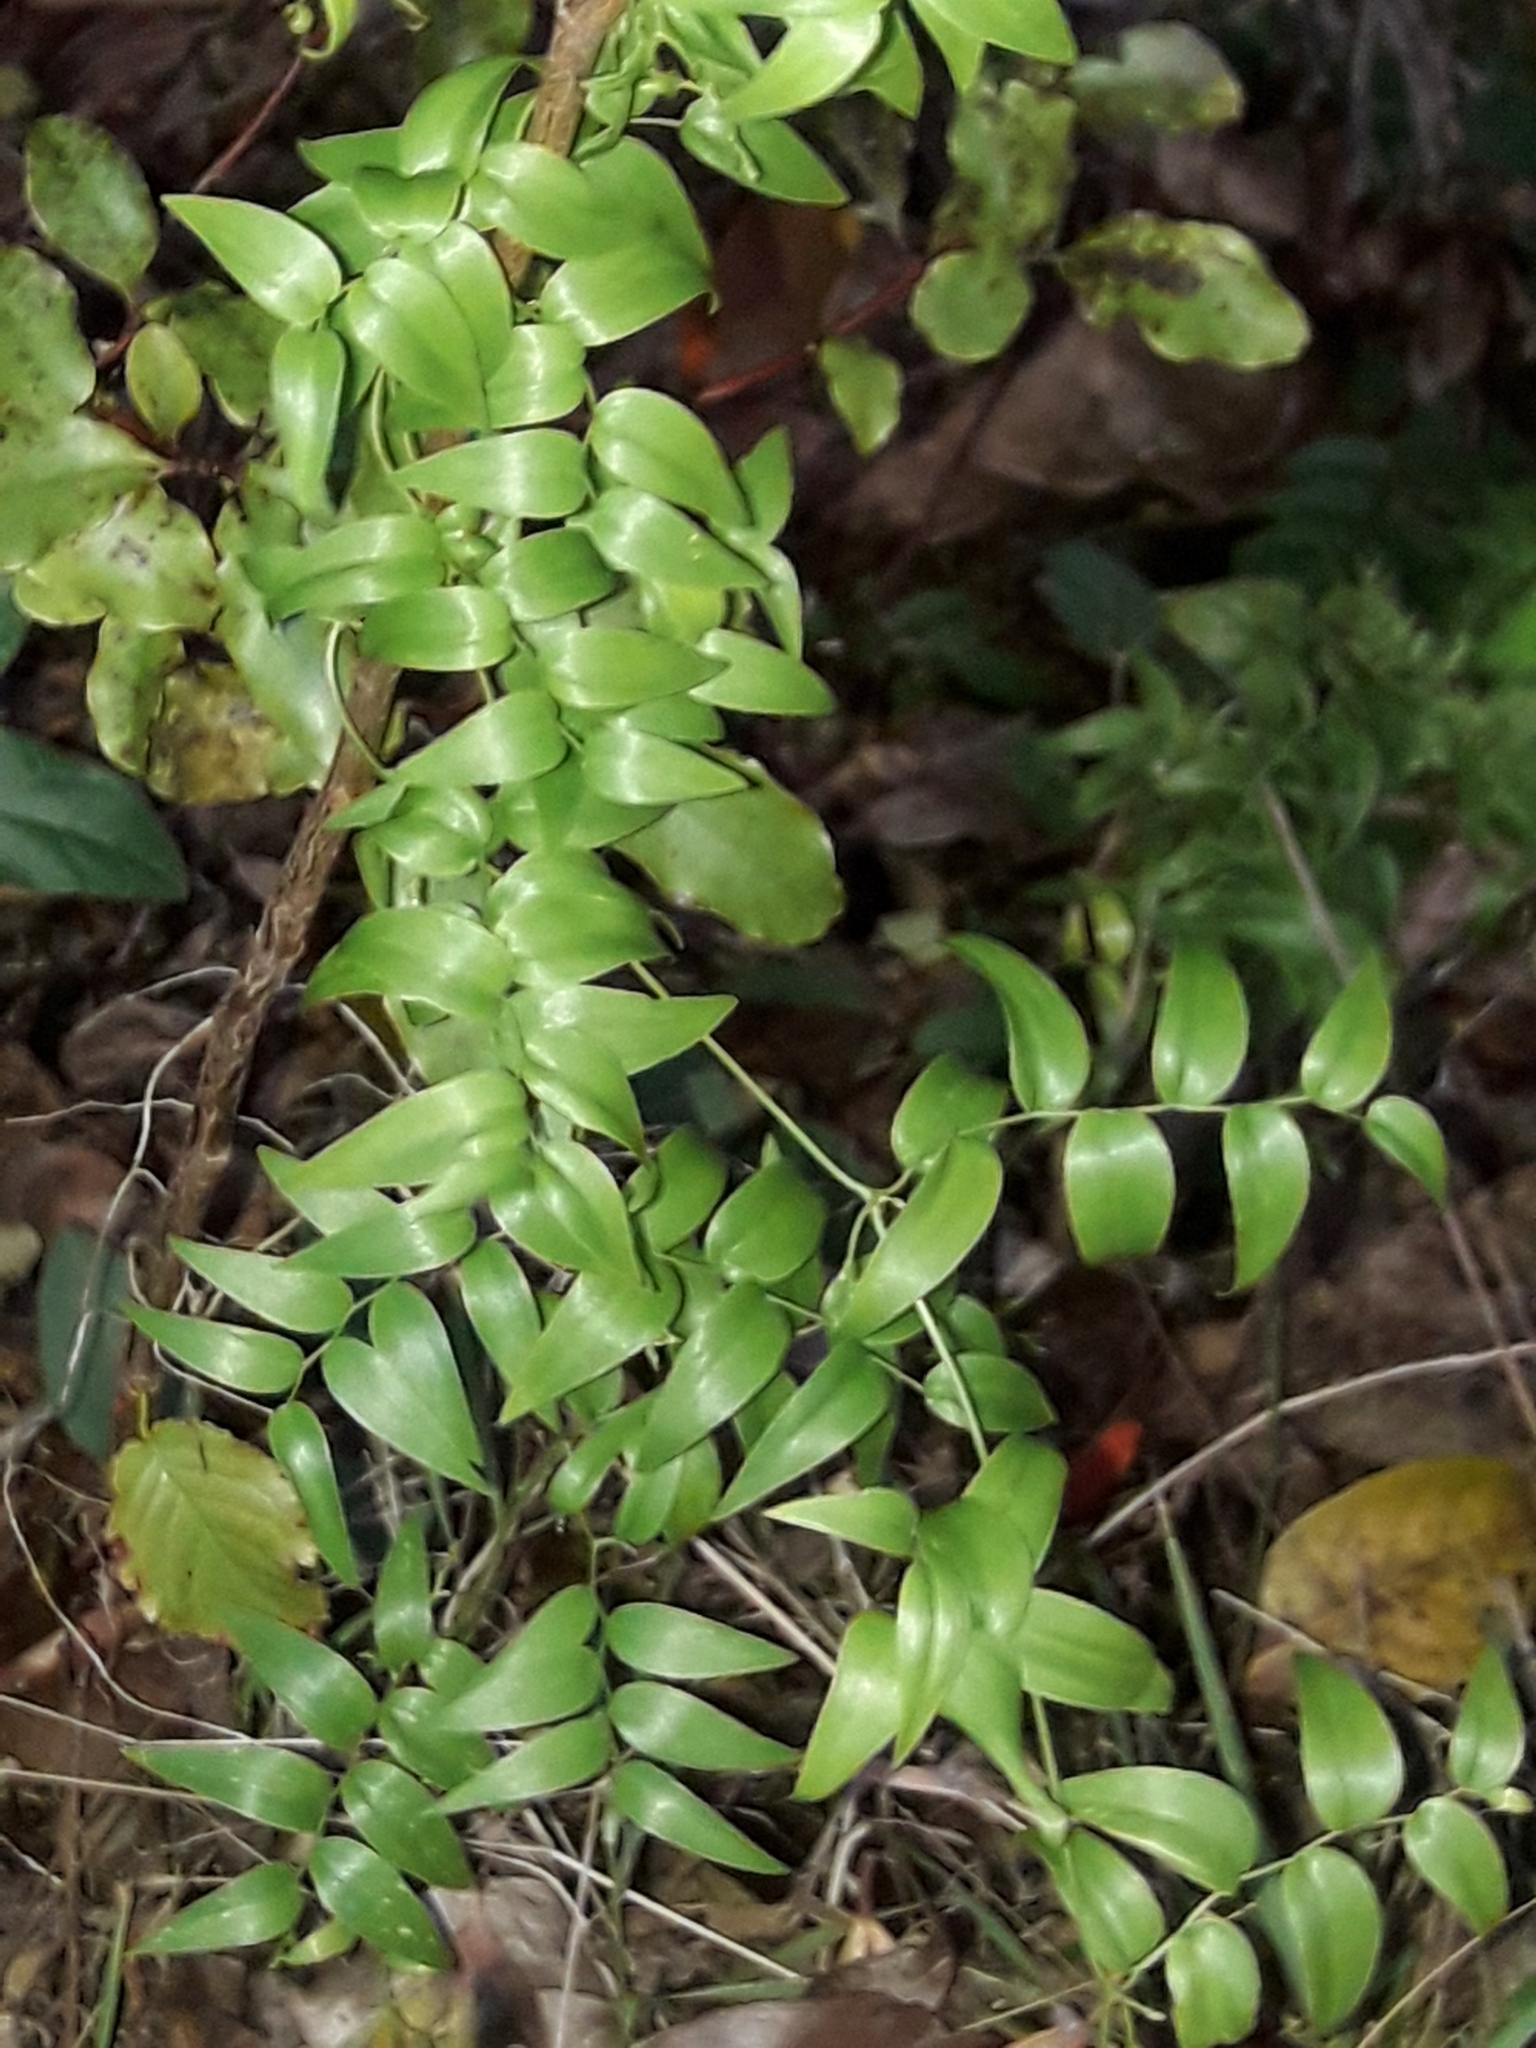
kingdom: Plantae
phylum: Tracheophyta
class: Liliopsida
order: Asparagales
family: Asparagaceae
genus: Asparagus
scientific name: Asparagus asparagoides
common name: African asparagus fern
